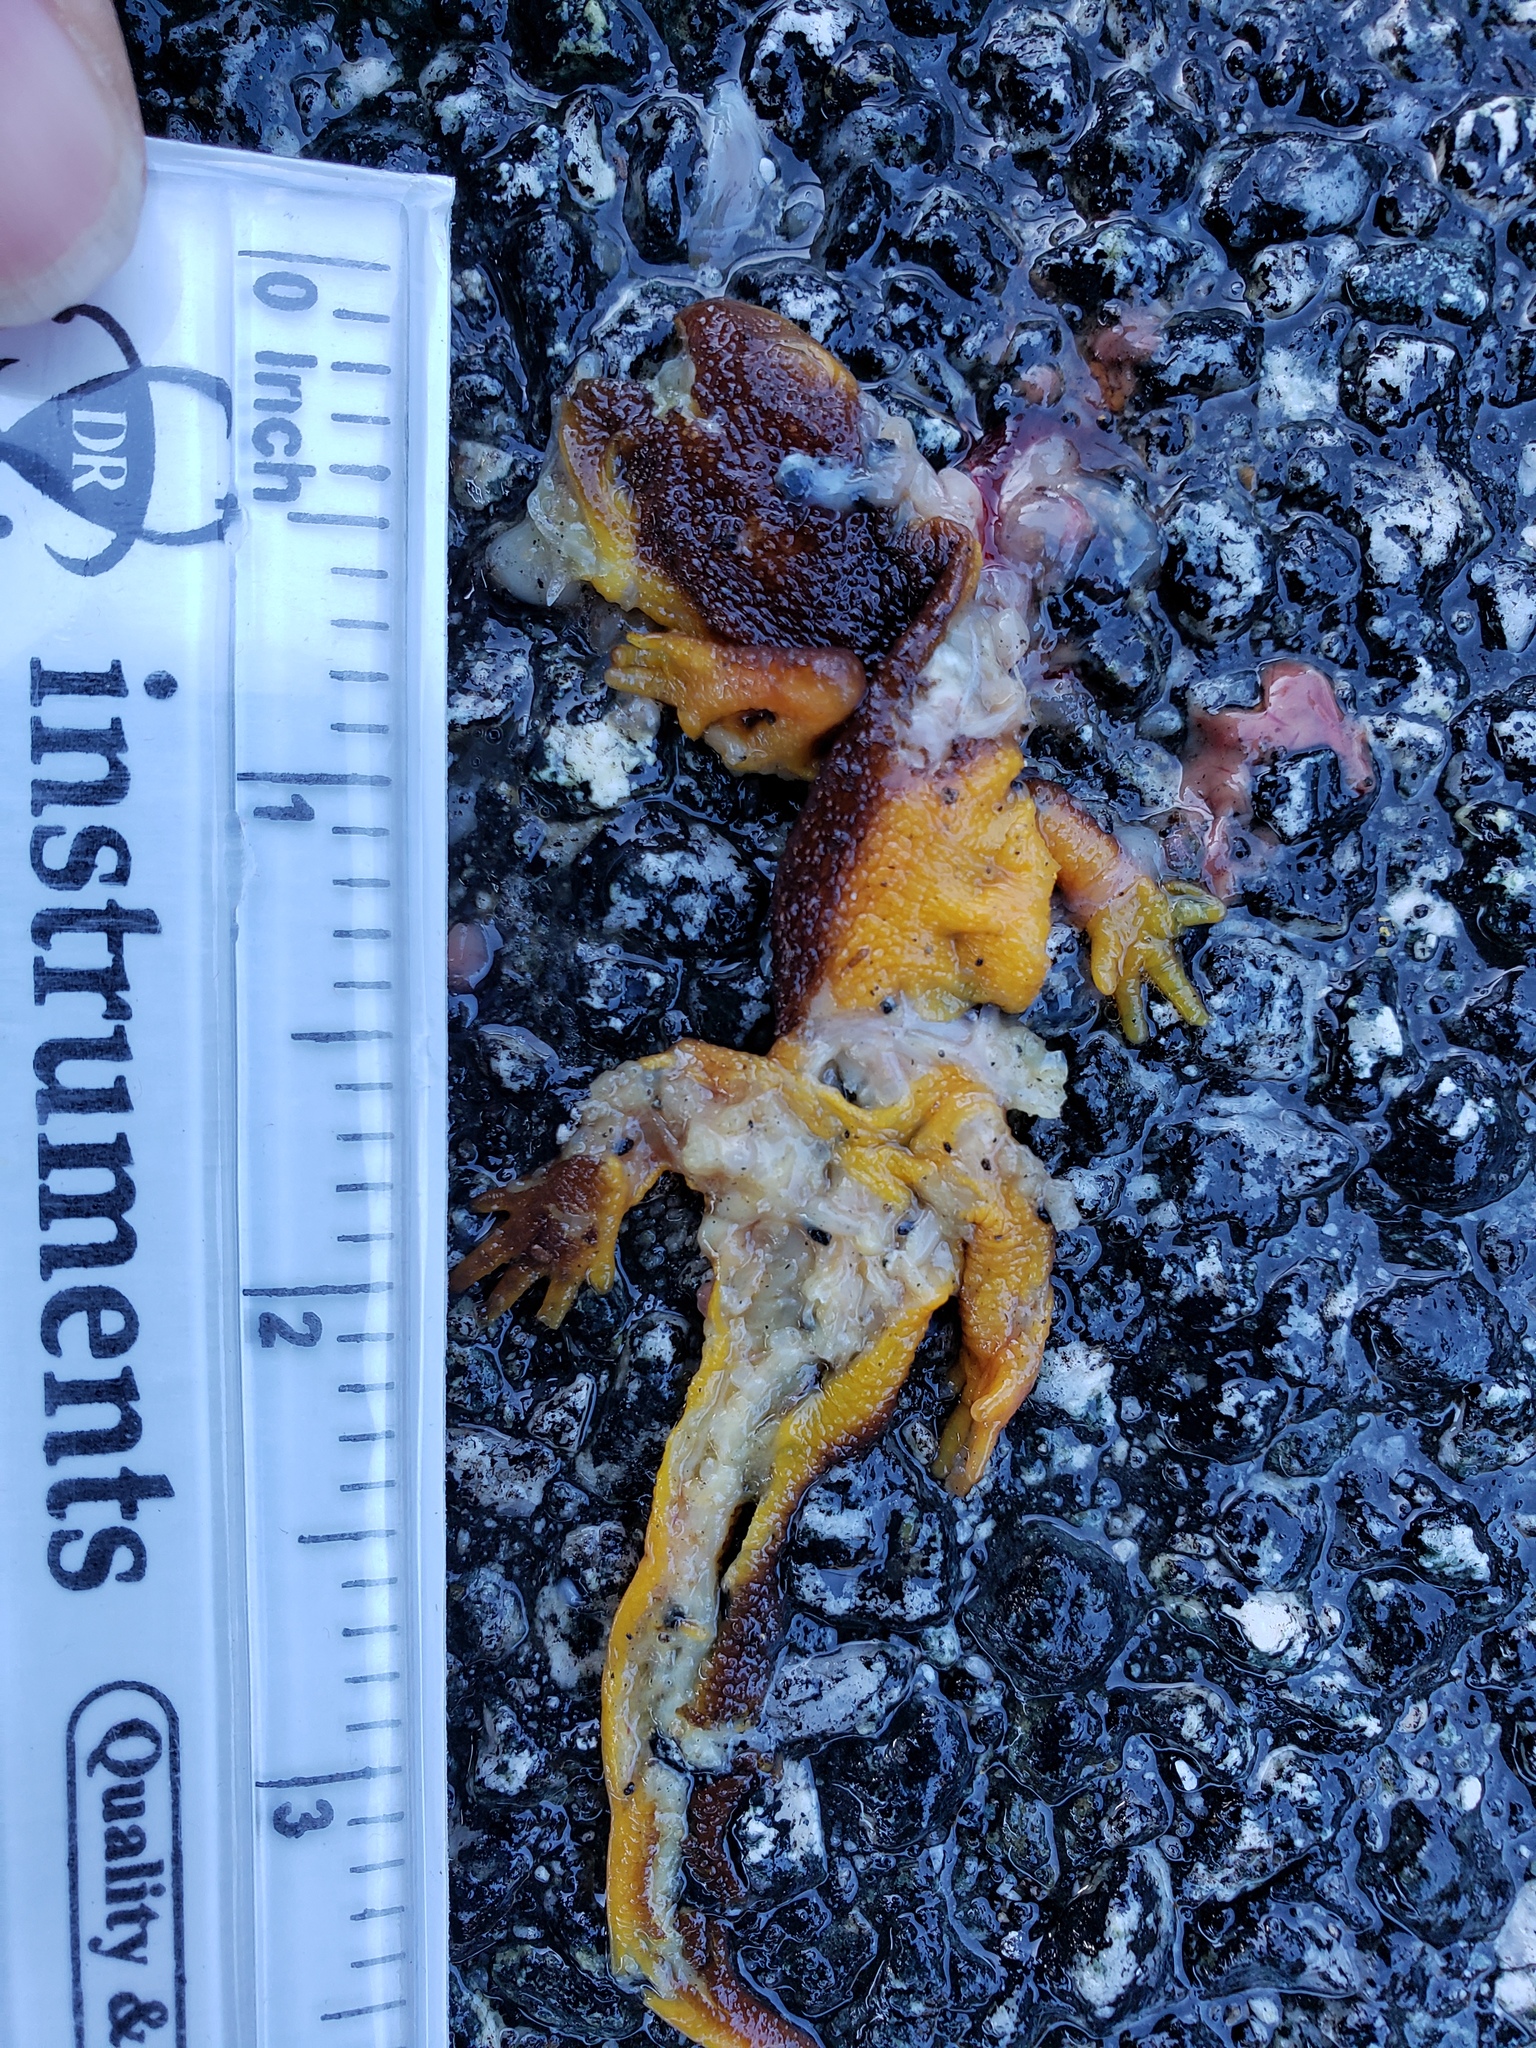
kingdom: Animalia
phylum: Chordata
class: Amphibia
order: Caudata
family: Salamandridae
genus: Taricha
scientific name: Taricha
